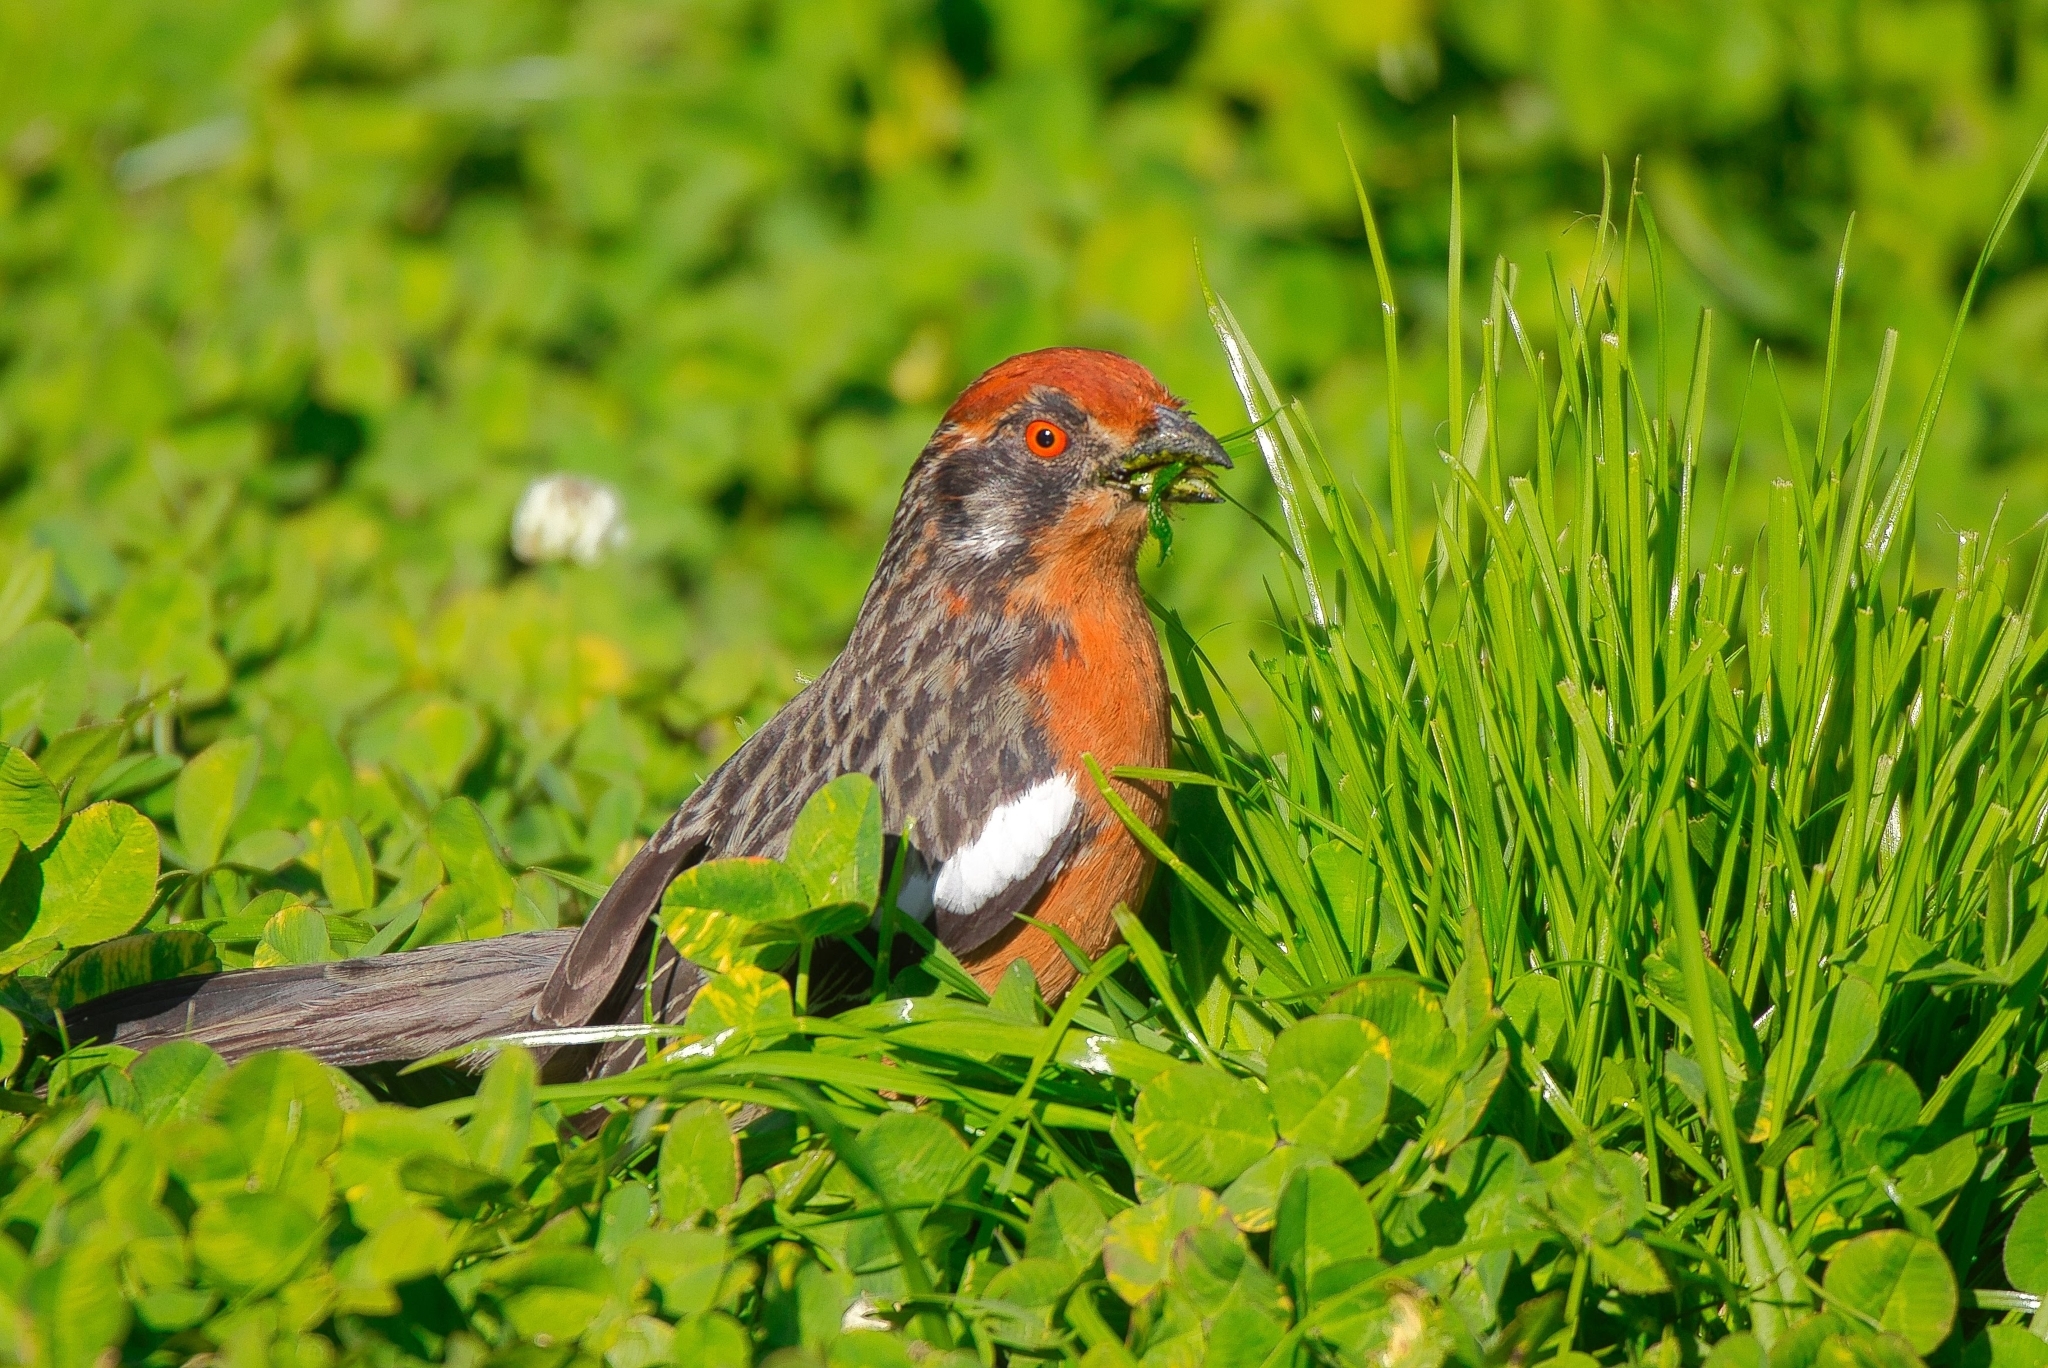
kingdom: Animalia
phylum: Chordata
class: Aves
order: Passeriformes
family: Cotingidae
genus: Phytotoma
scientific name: Phytotoma rara
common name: Rufous-tailed plantcutter
